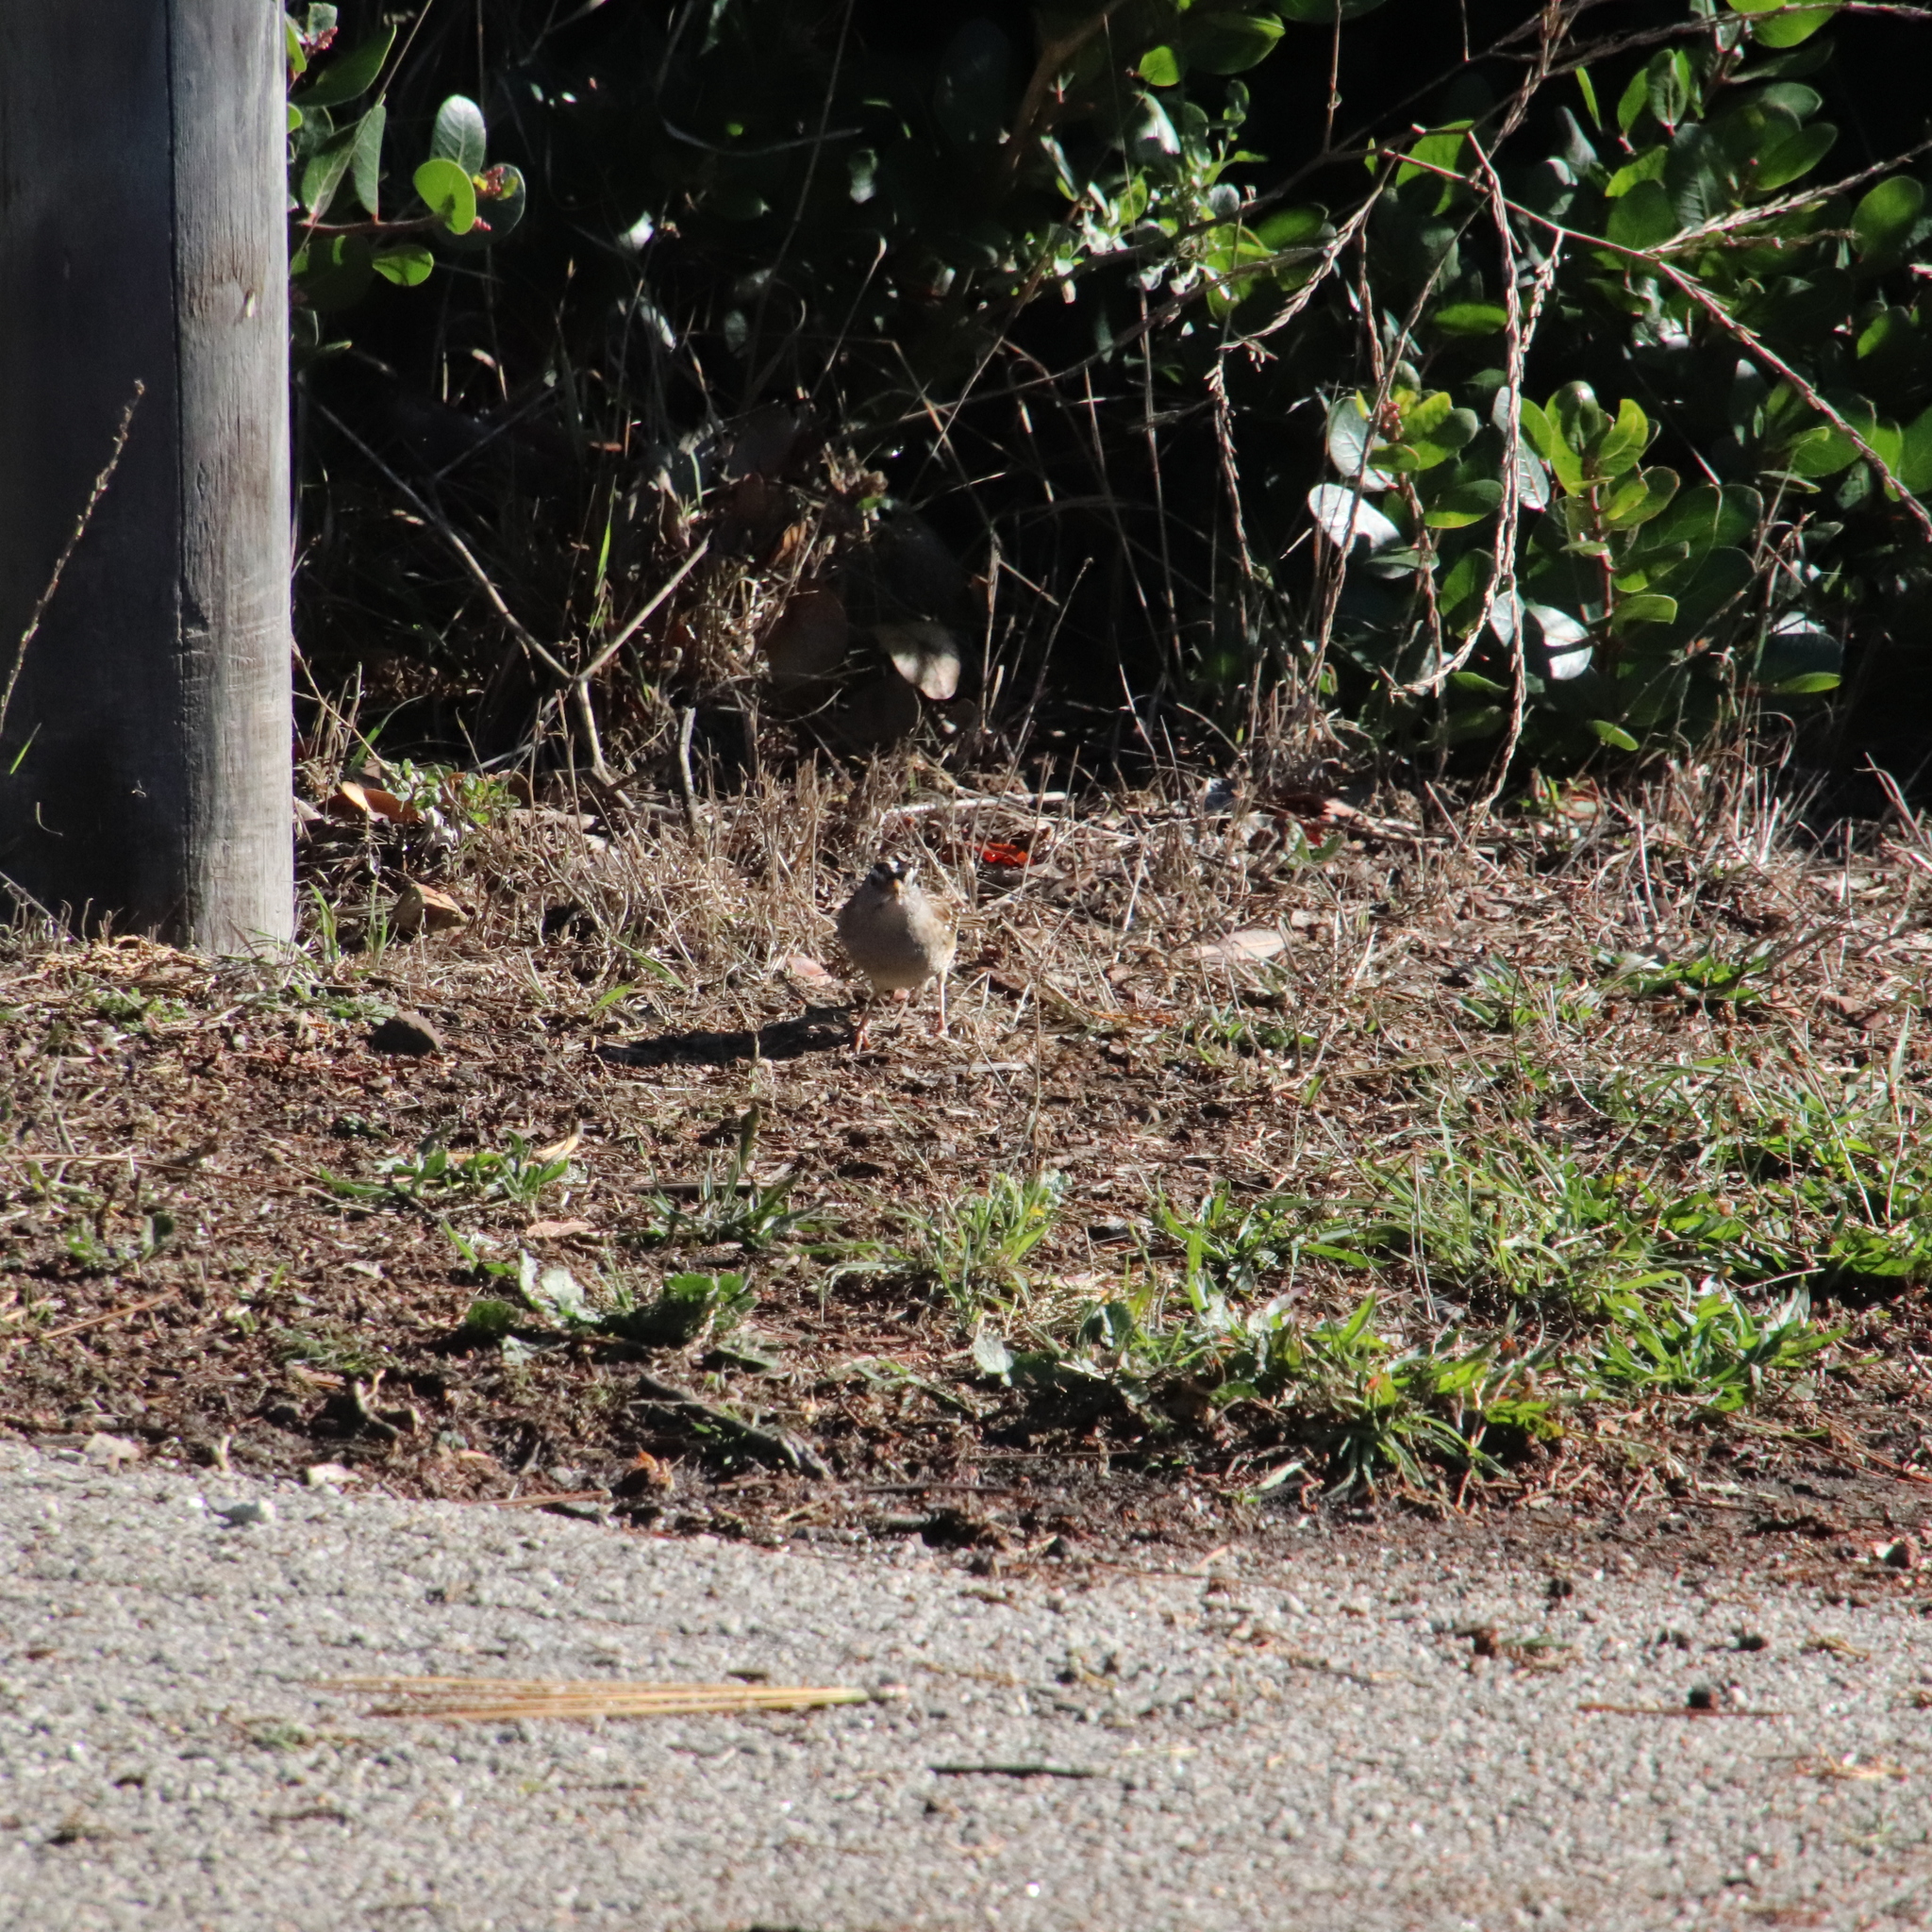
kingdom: Animalia
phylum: Chordata
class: Aves
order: Passeriformes
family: Passerellidae
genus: Zonotrichia
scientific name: Zonotrichia leucophrys
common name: White-crowned sparrow
